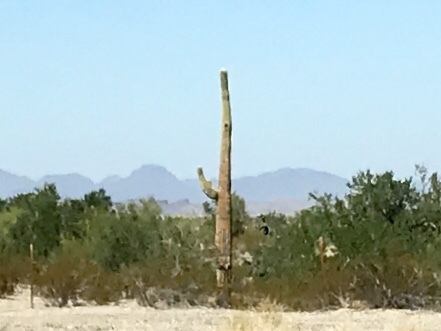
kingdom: Plantae
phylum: Tracheophyta
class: Magnoliopsida
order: Caryophyllales
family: Cactaceae
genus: Carnegiea
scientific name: Carnegiea gigantea
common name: Saguaro
